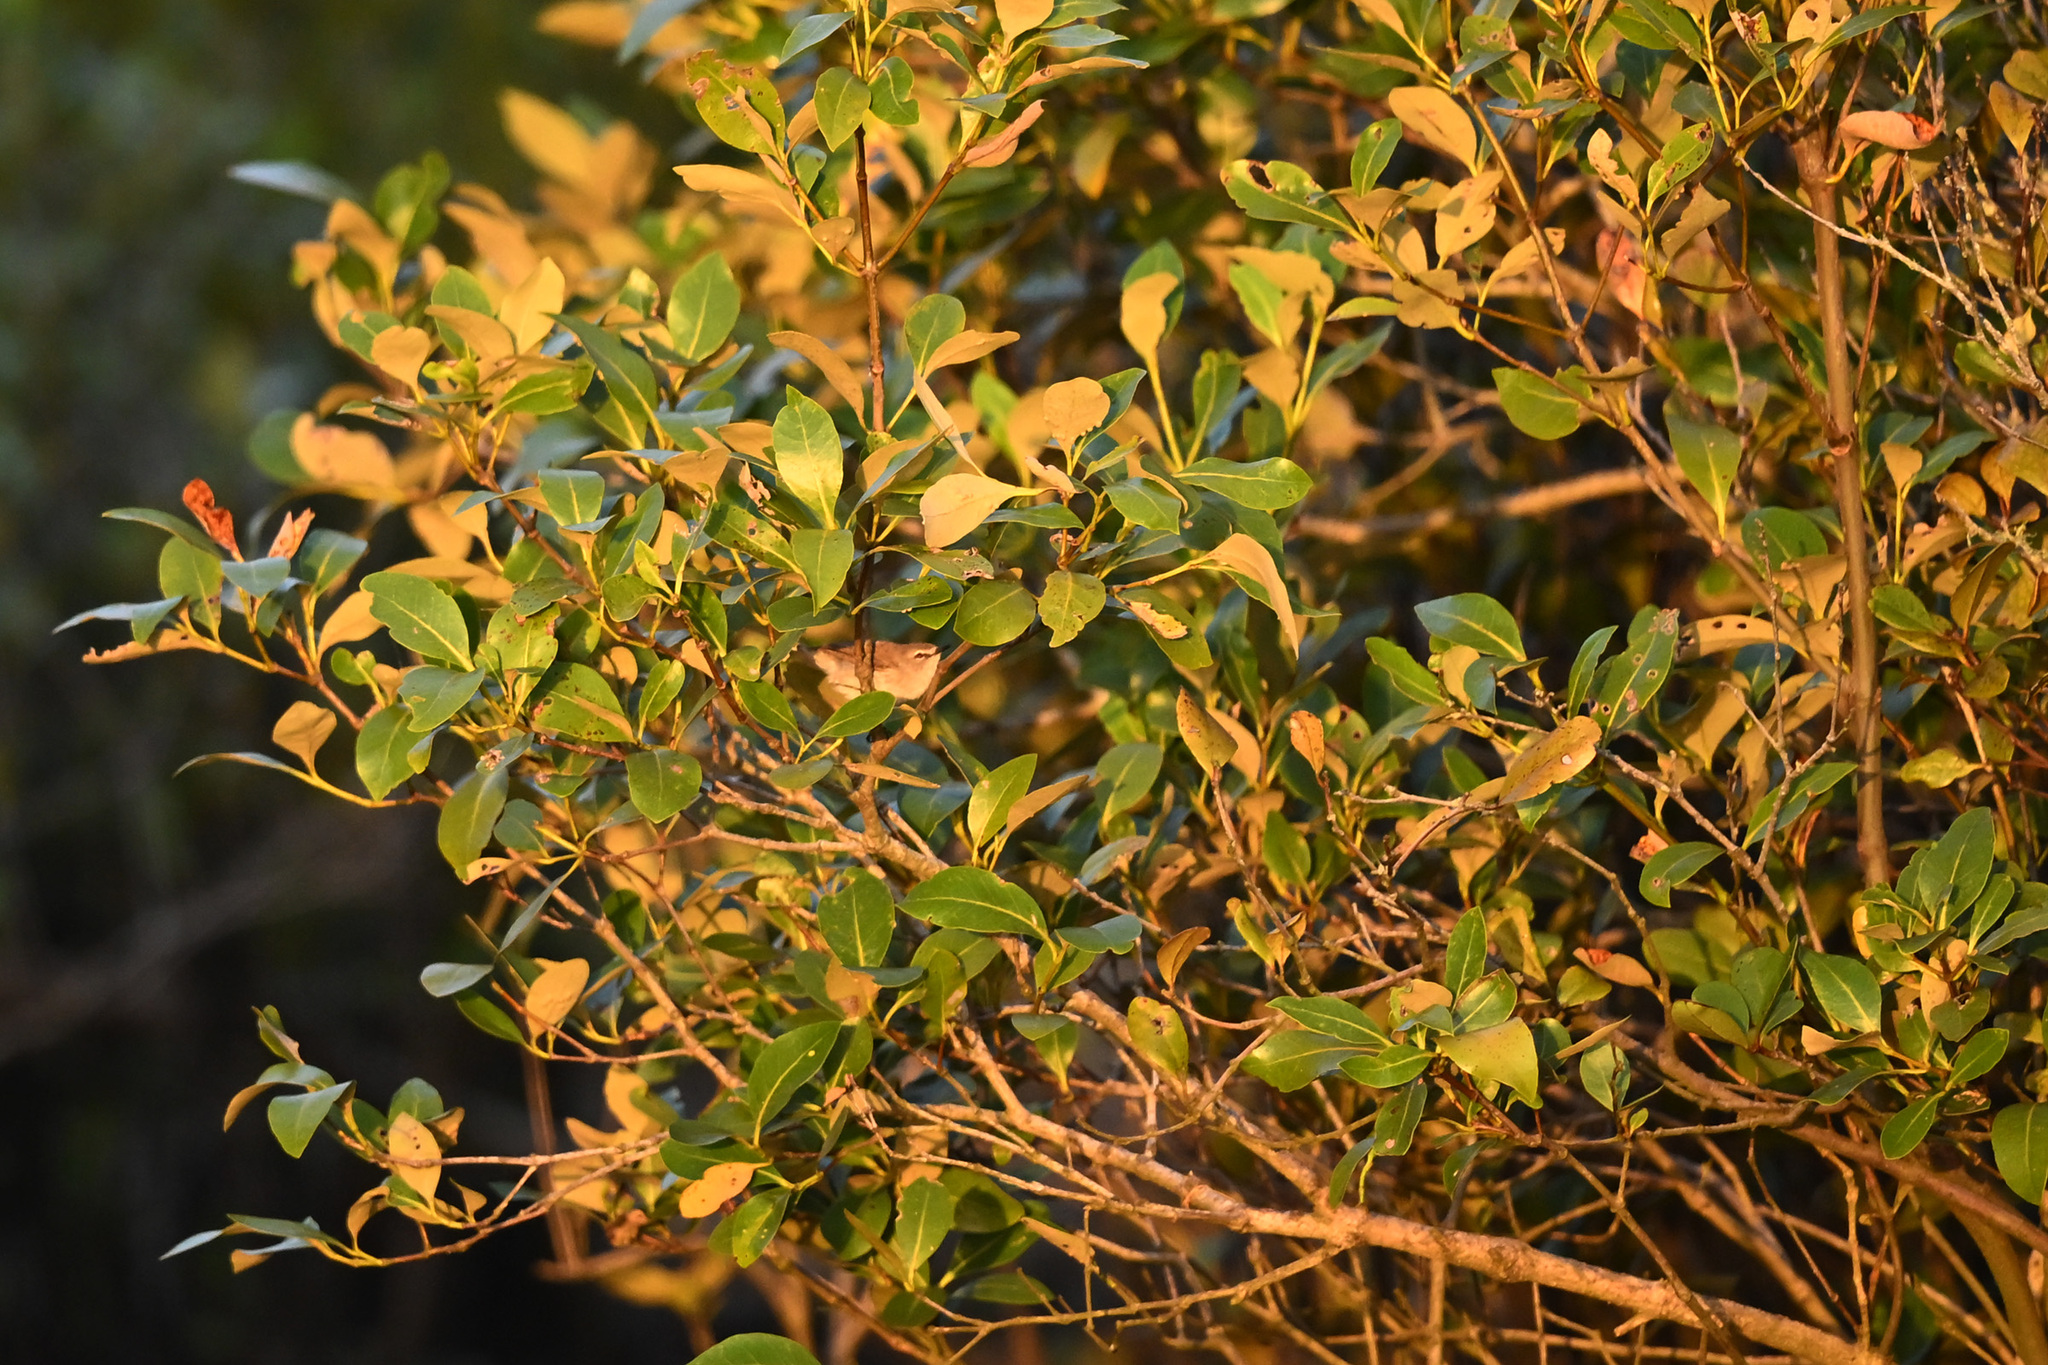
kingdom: Animalia
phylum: Chordata
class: Aves
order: Passeriformes
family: Acanthizidae
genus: Gerygone
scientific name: Gerygone levigaster
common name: Mangrove gerygone
